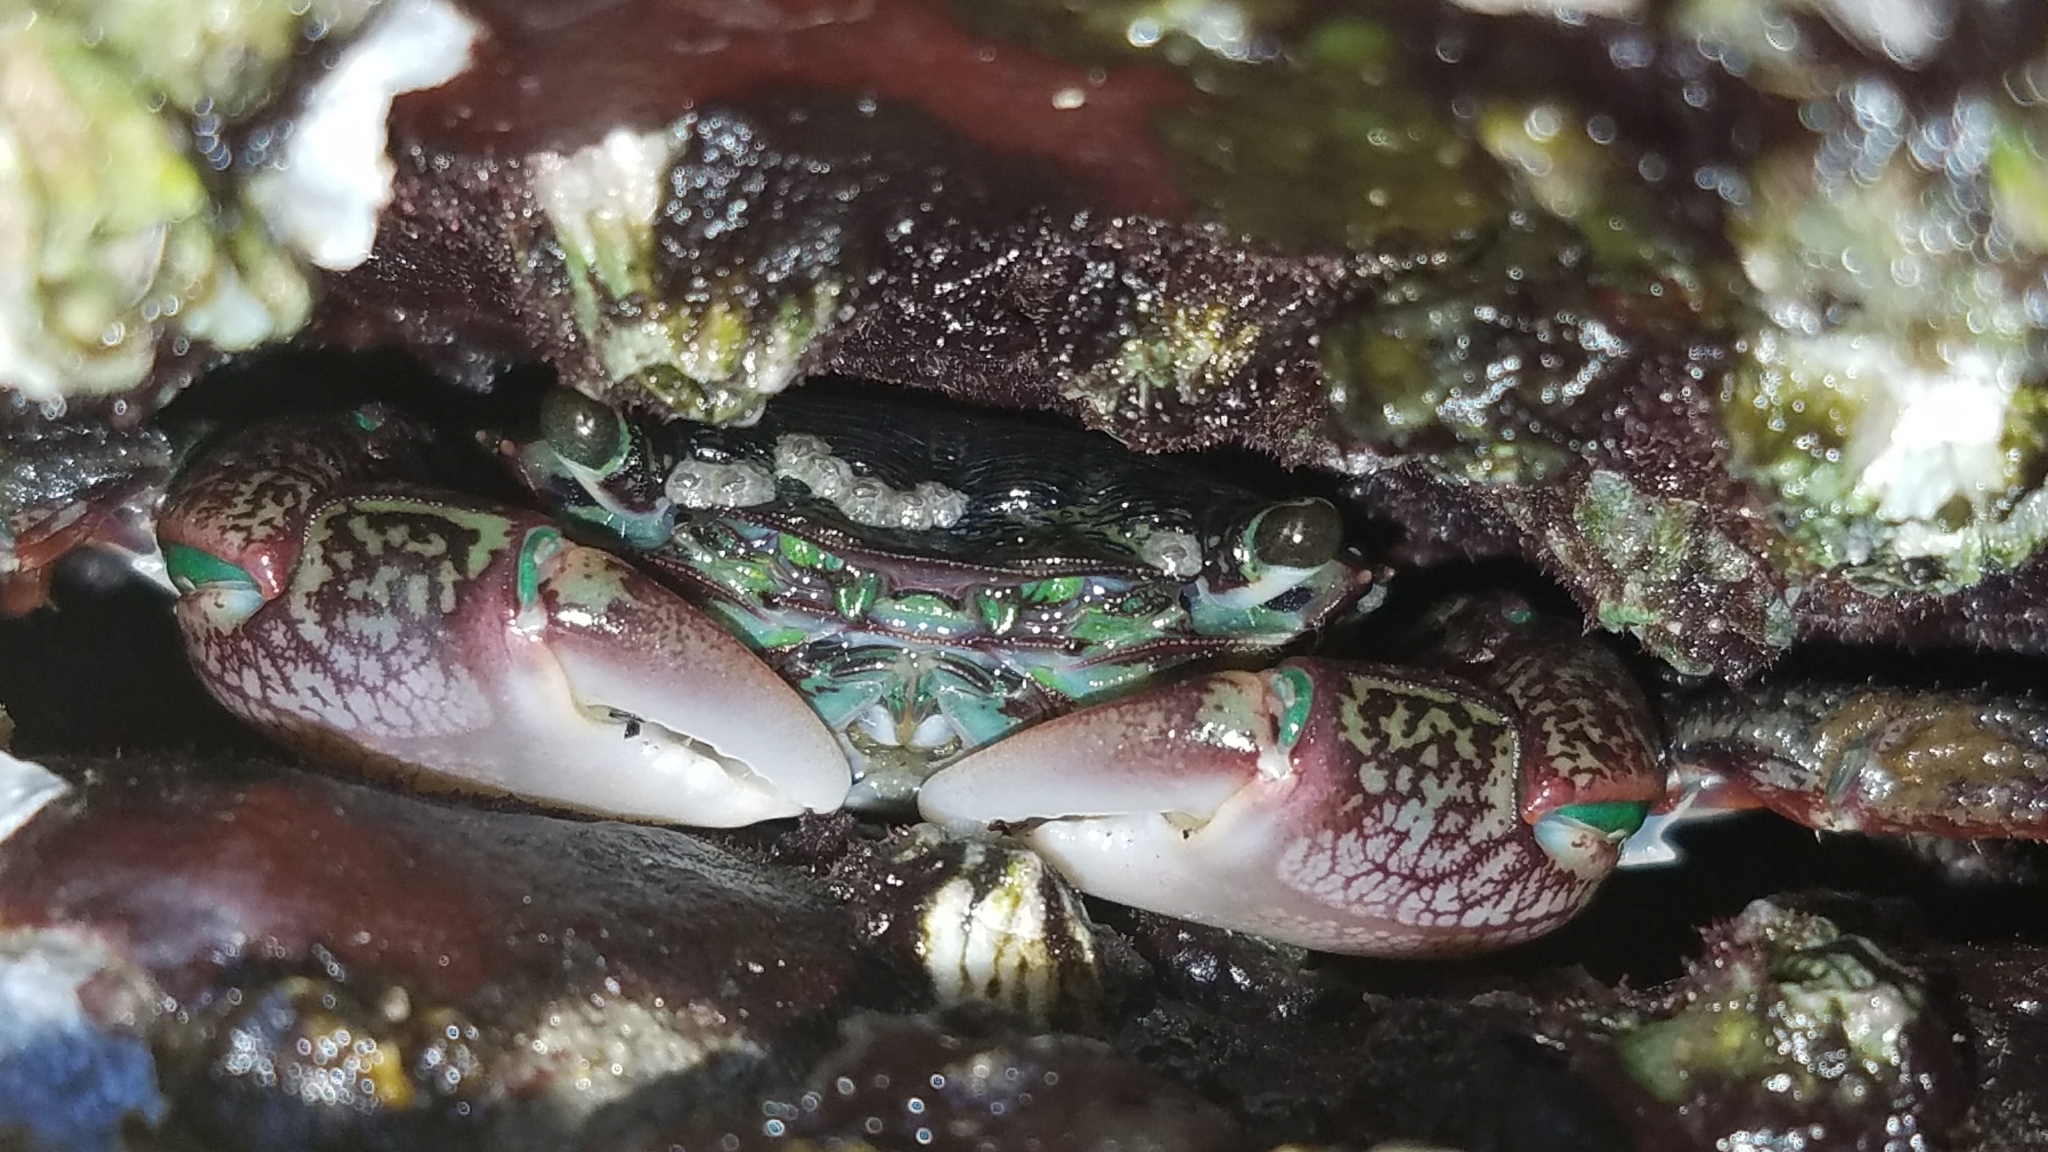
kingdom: Animalia
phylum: Arthropoda
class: Malacostraca
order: Decapoda
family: Grapsidae
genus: Pachygrapsus
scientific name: Pachygrapsus crassipes
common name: Striped shore crab
